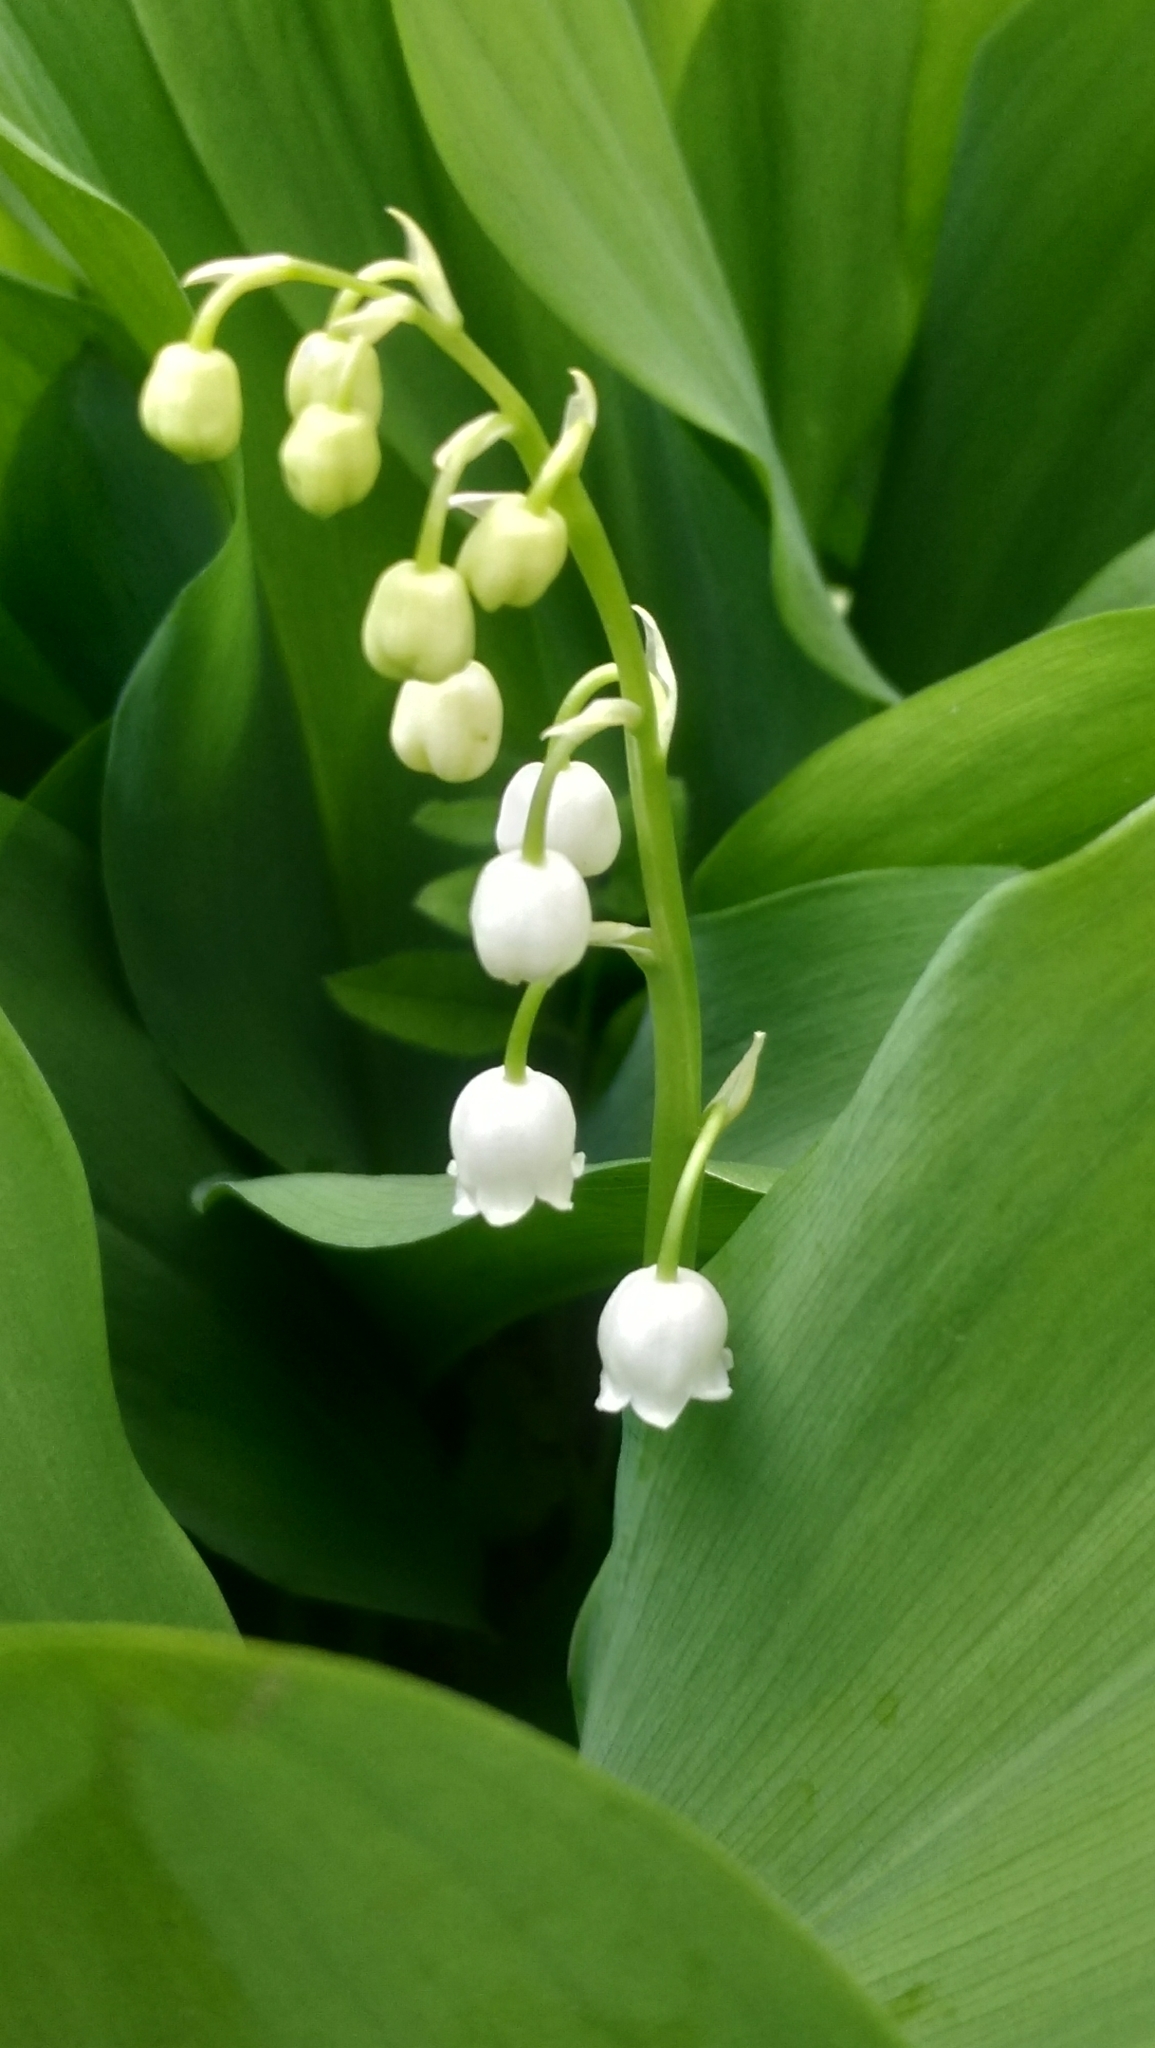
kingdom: Plantae
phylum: Tracheophyta
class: Liliopsida
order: Asparagales
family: Asparagaceae
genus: Convallaria
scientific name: Convallaria majalis
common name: Lily-of-the-valley
